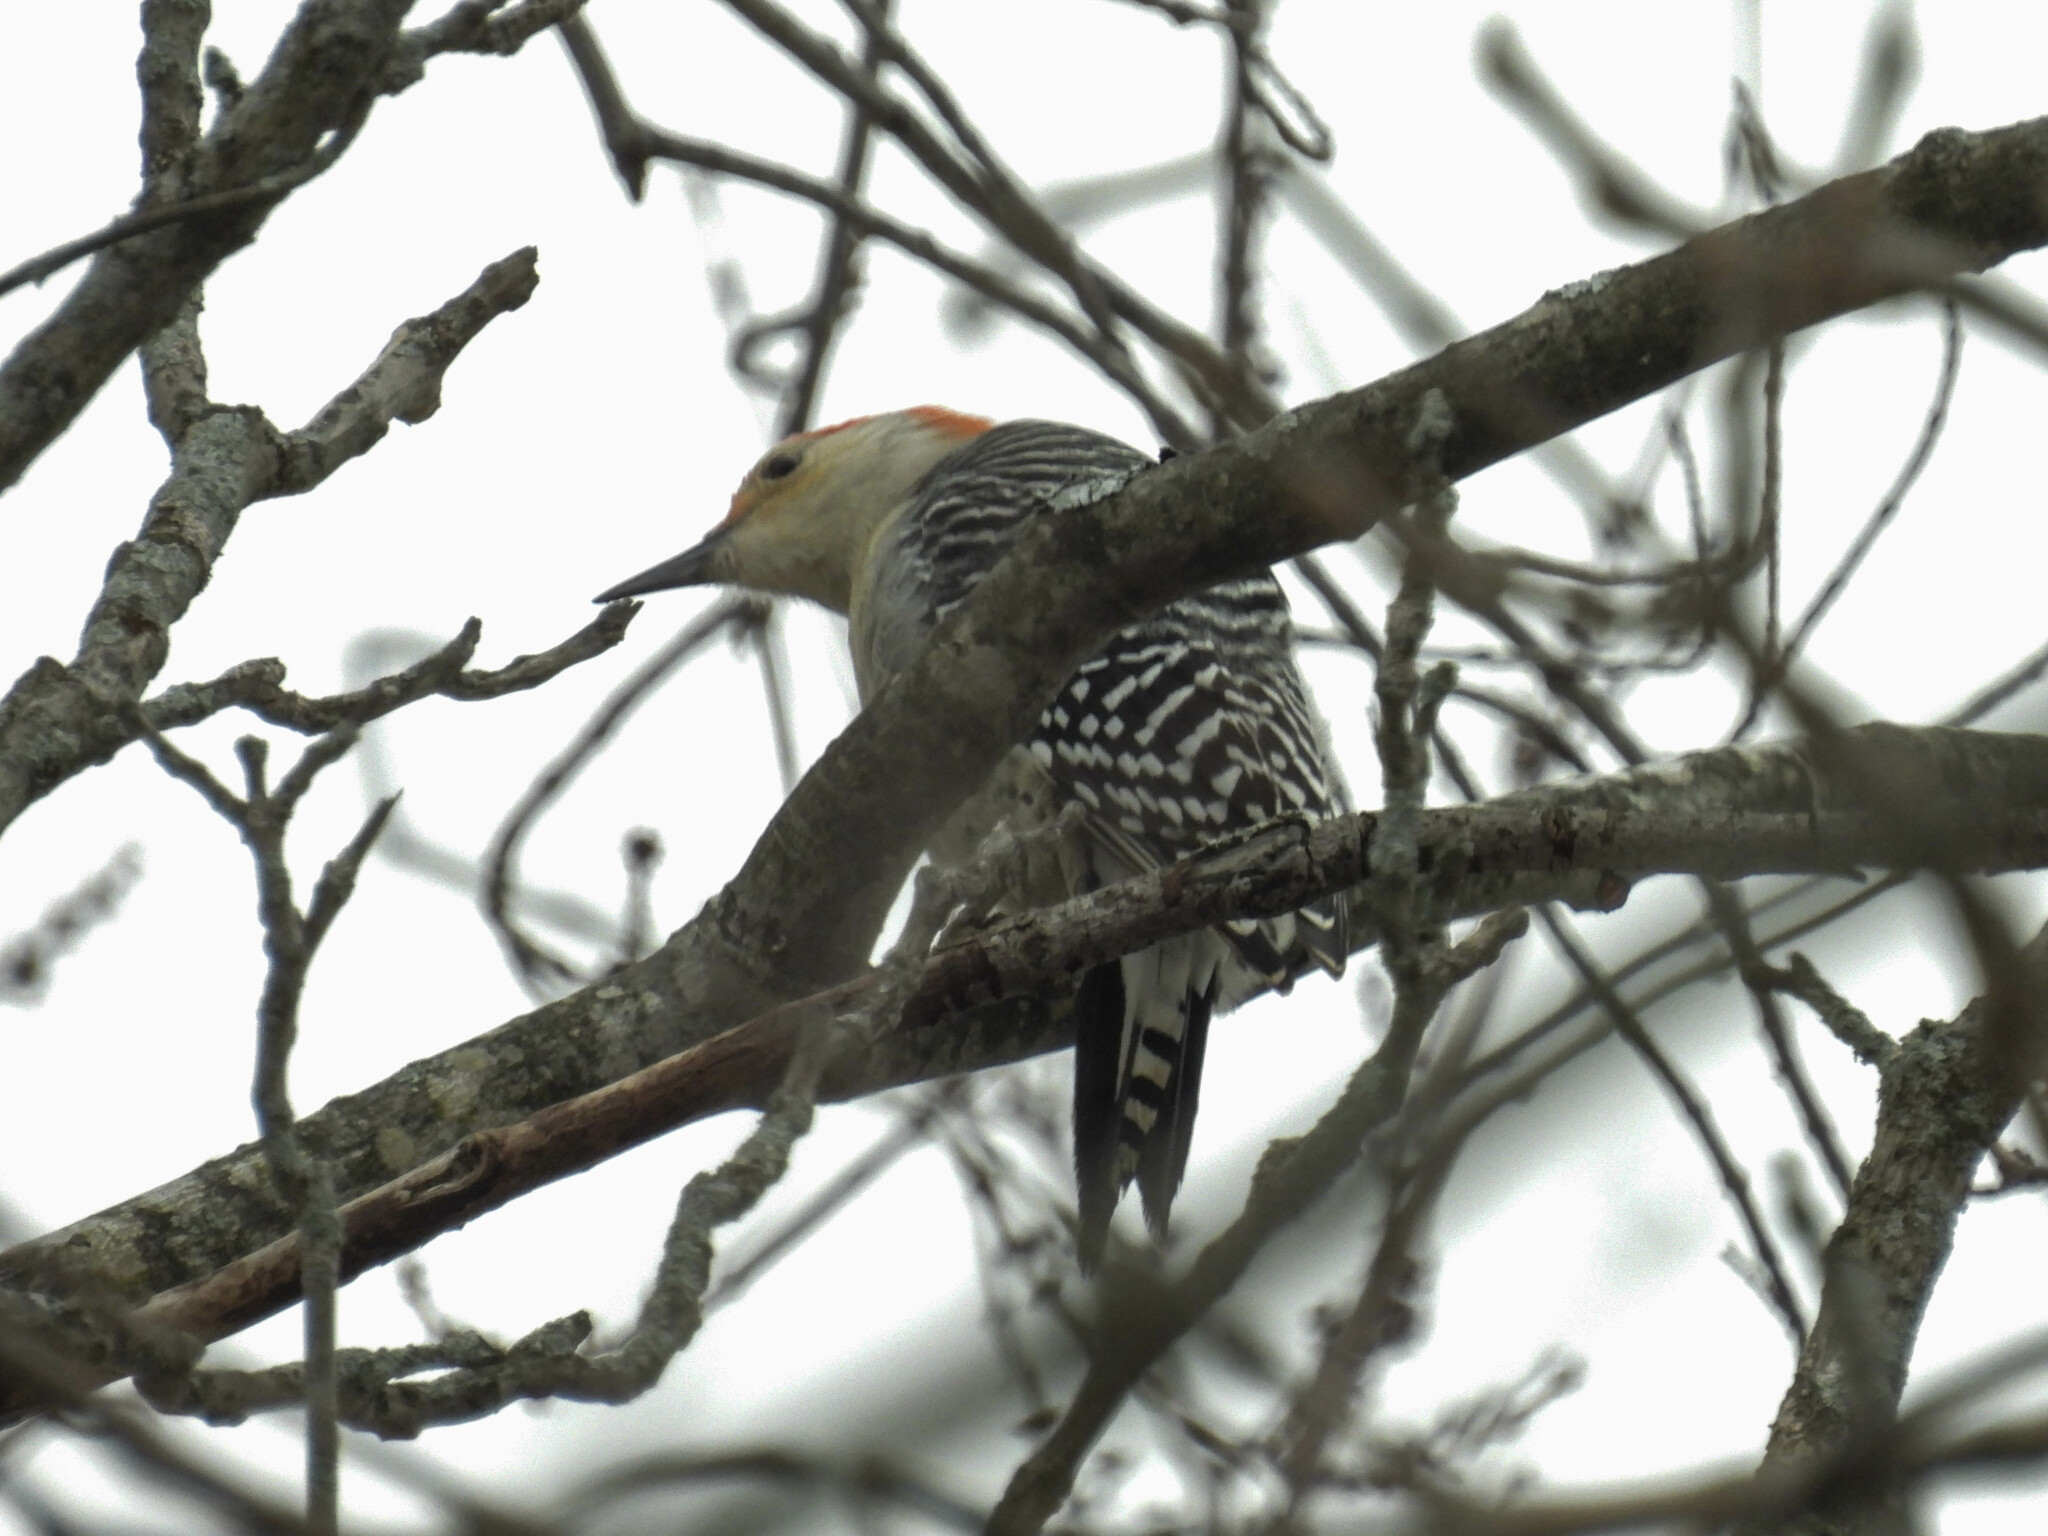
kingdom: Animalia
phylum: Chordata
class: Aves
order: Piciformes
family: Picidae
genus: Melanerpes
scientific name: Melanerpes carolinus
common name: Red-bellied woodpecker
